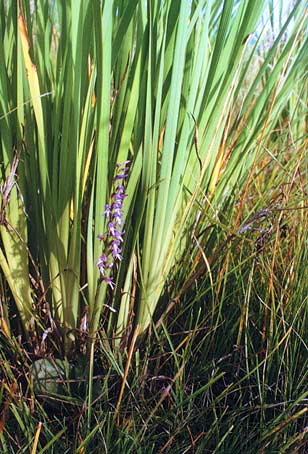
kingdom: Plantae
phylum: Tracheophyta
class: Liliopsida
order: Asparagales
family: Iridaceae
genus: Iris
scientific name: Iris lactea
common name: White-flower chinese iris
